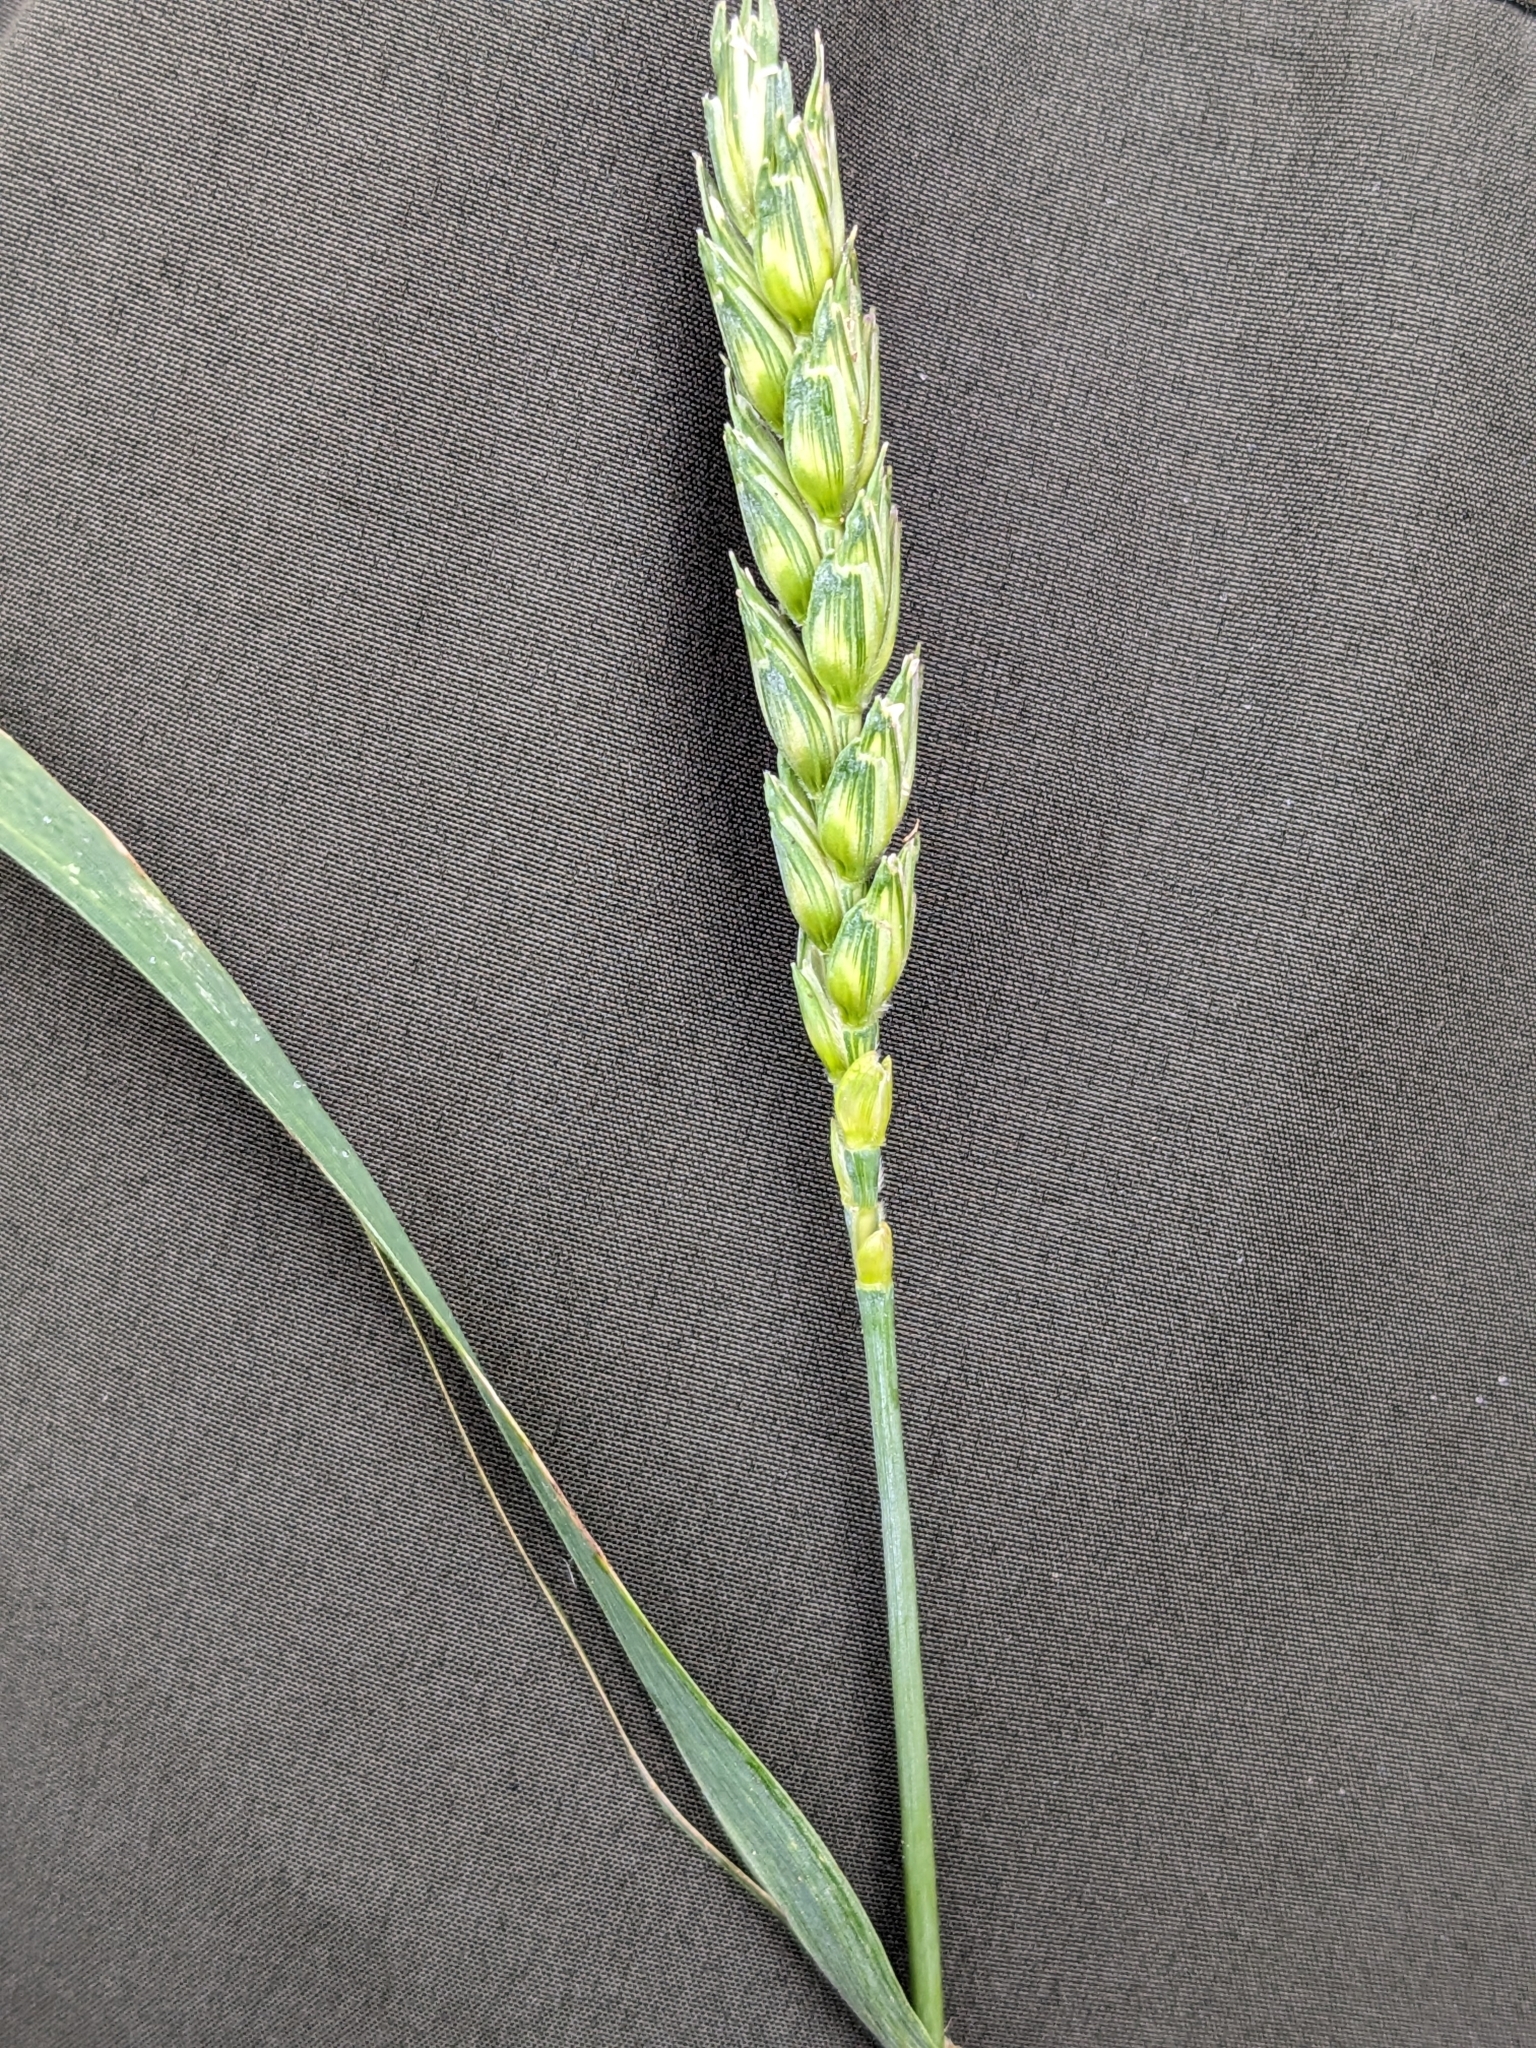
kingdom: Plantae
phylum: Tracheophyta
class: Liliopsida
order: Poales
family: Poaceae
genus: Triticum
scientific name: Triticum aestivum
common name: Common wheat
